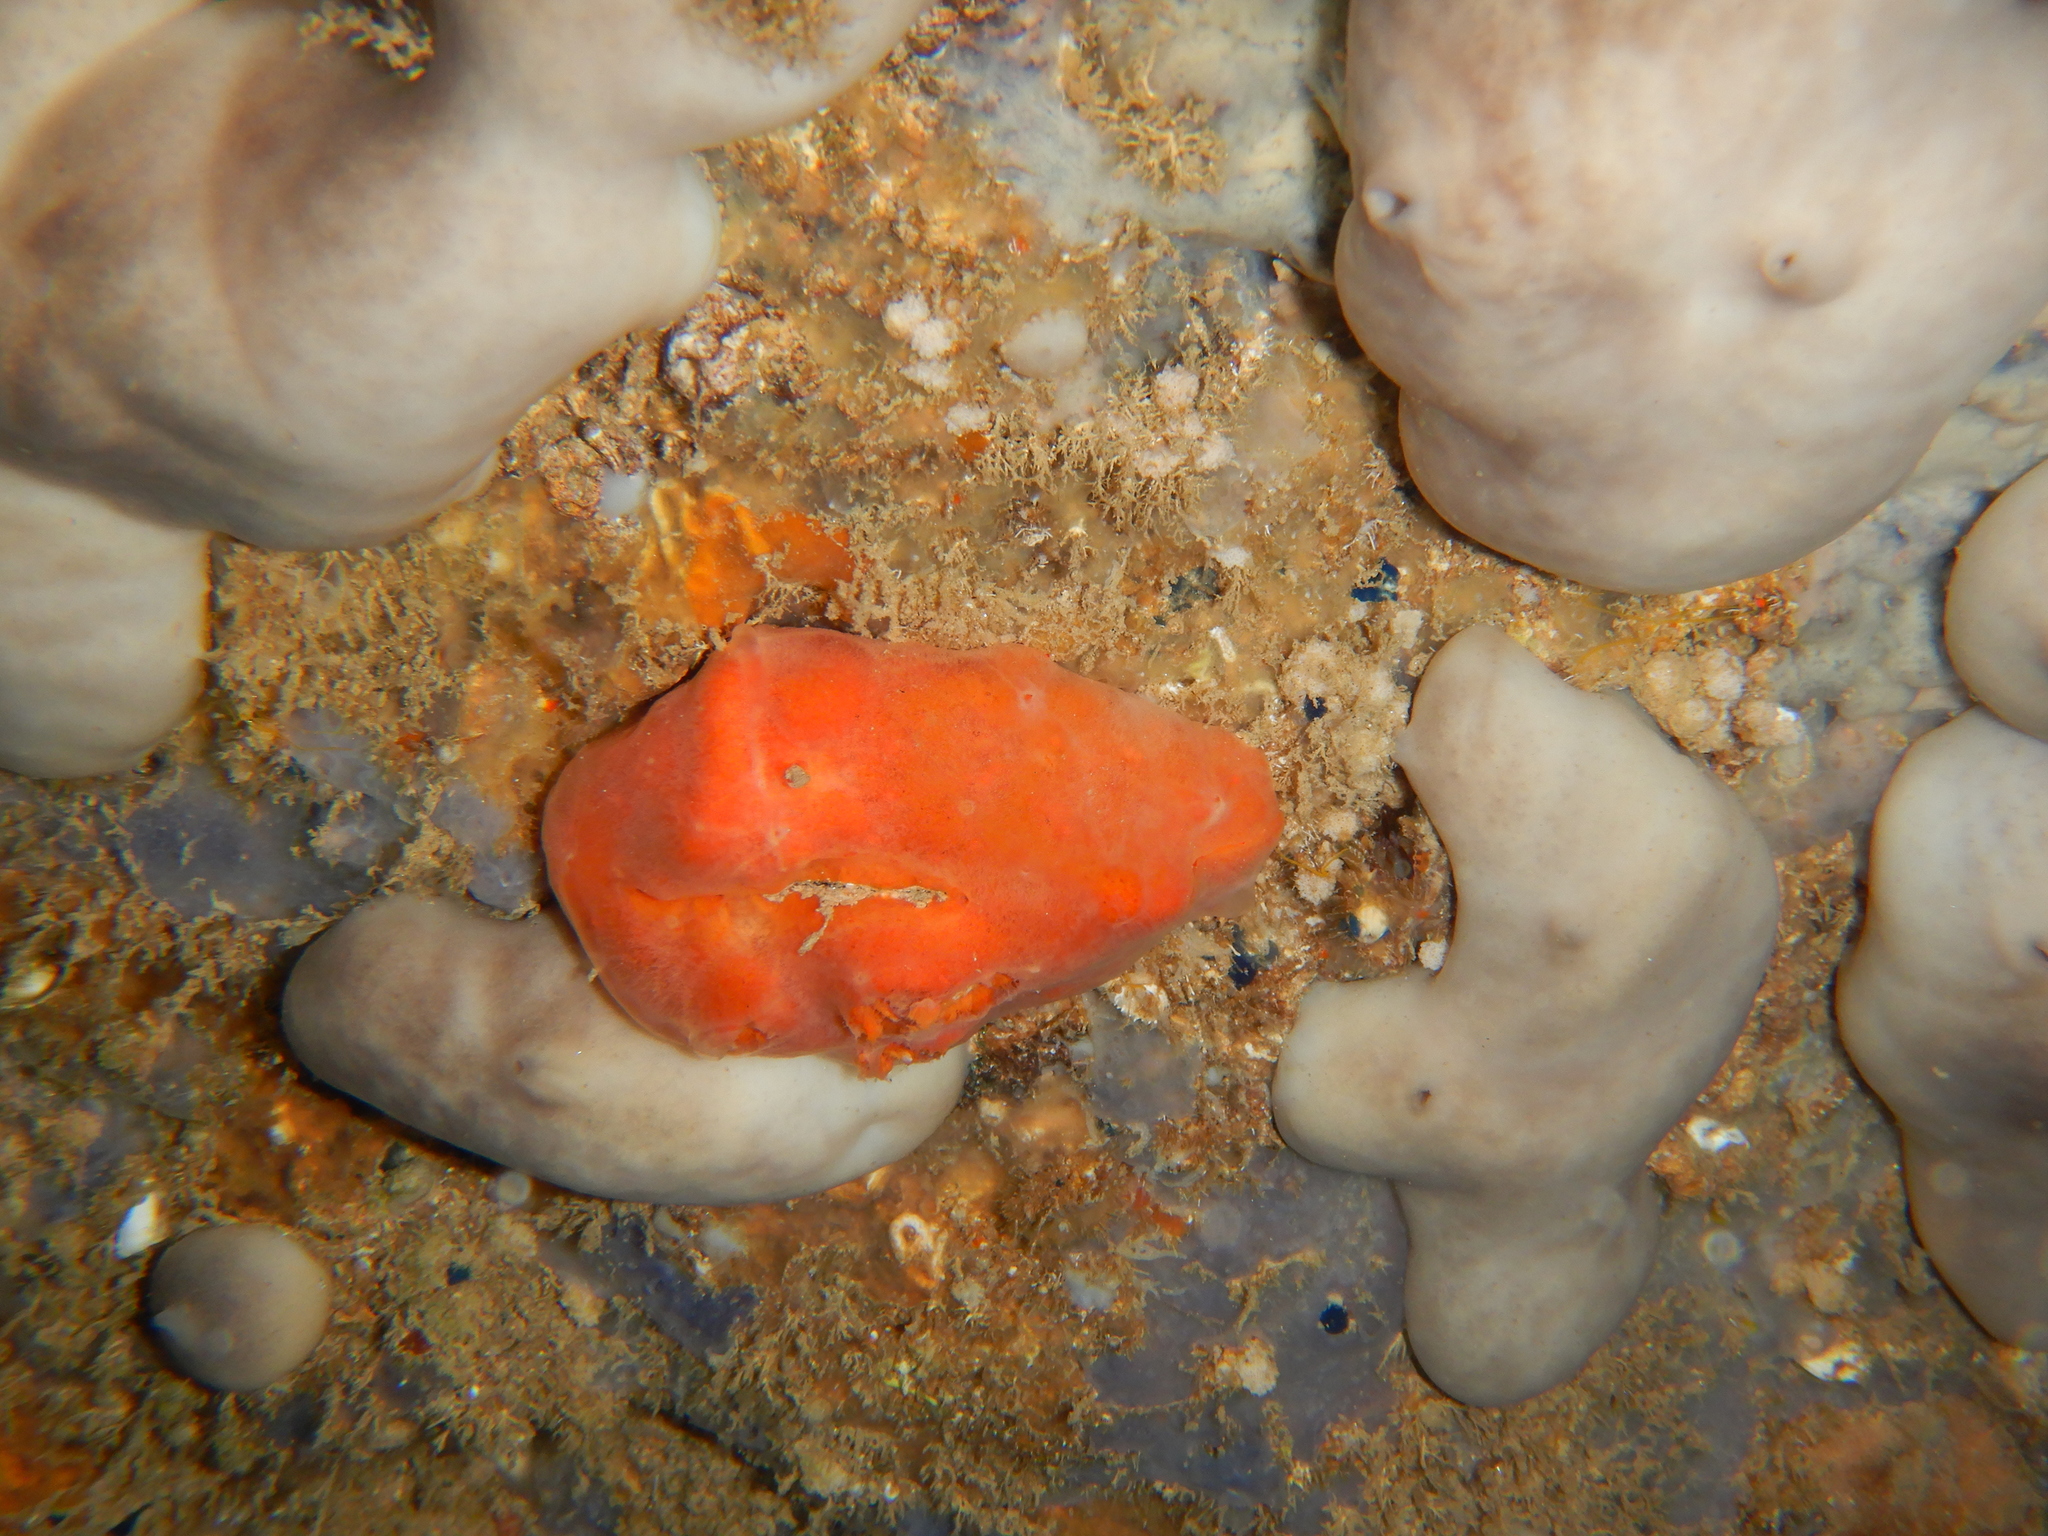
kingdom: Animalia
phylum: Porifera
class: Demospongiae
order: Poecilosclerida
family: Crambeidae
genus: Crambe
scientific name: Crambe crambe
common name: Orange-red encrusting sponge
